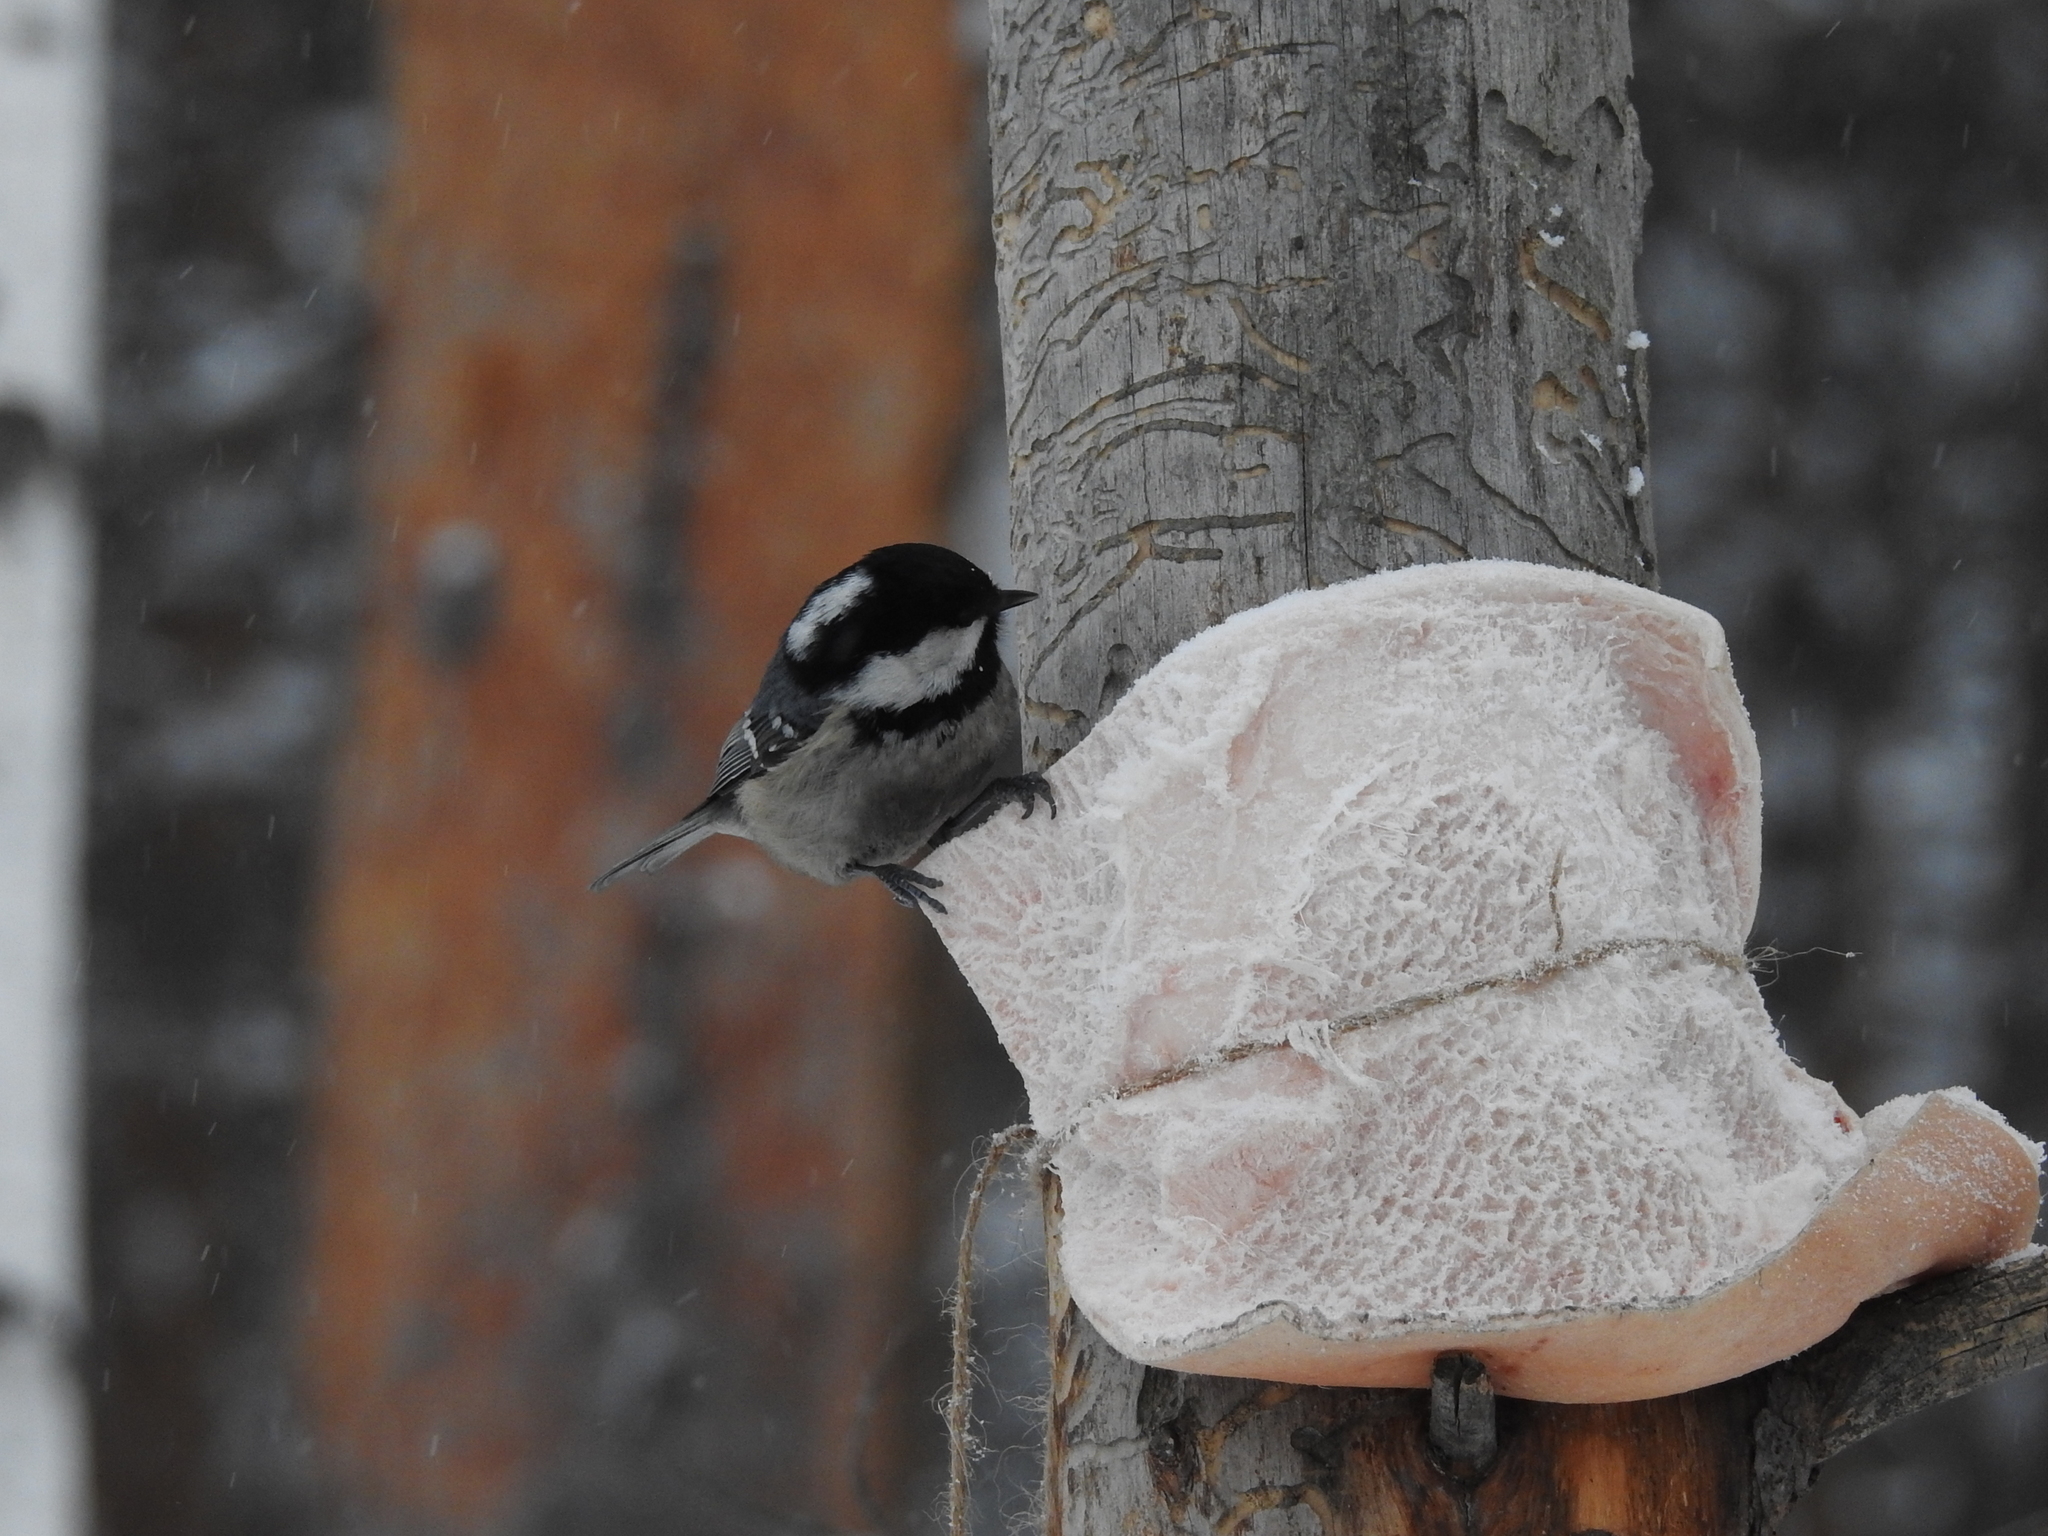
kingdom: Animalia
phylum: Chordata
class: Aves
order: Passeriformes
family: Paridae
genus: Periparus
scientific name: Periparus ater
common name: Coal tit
